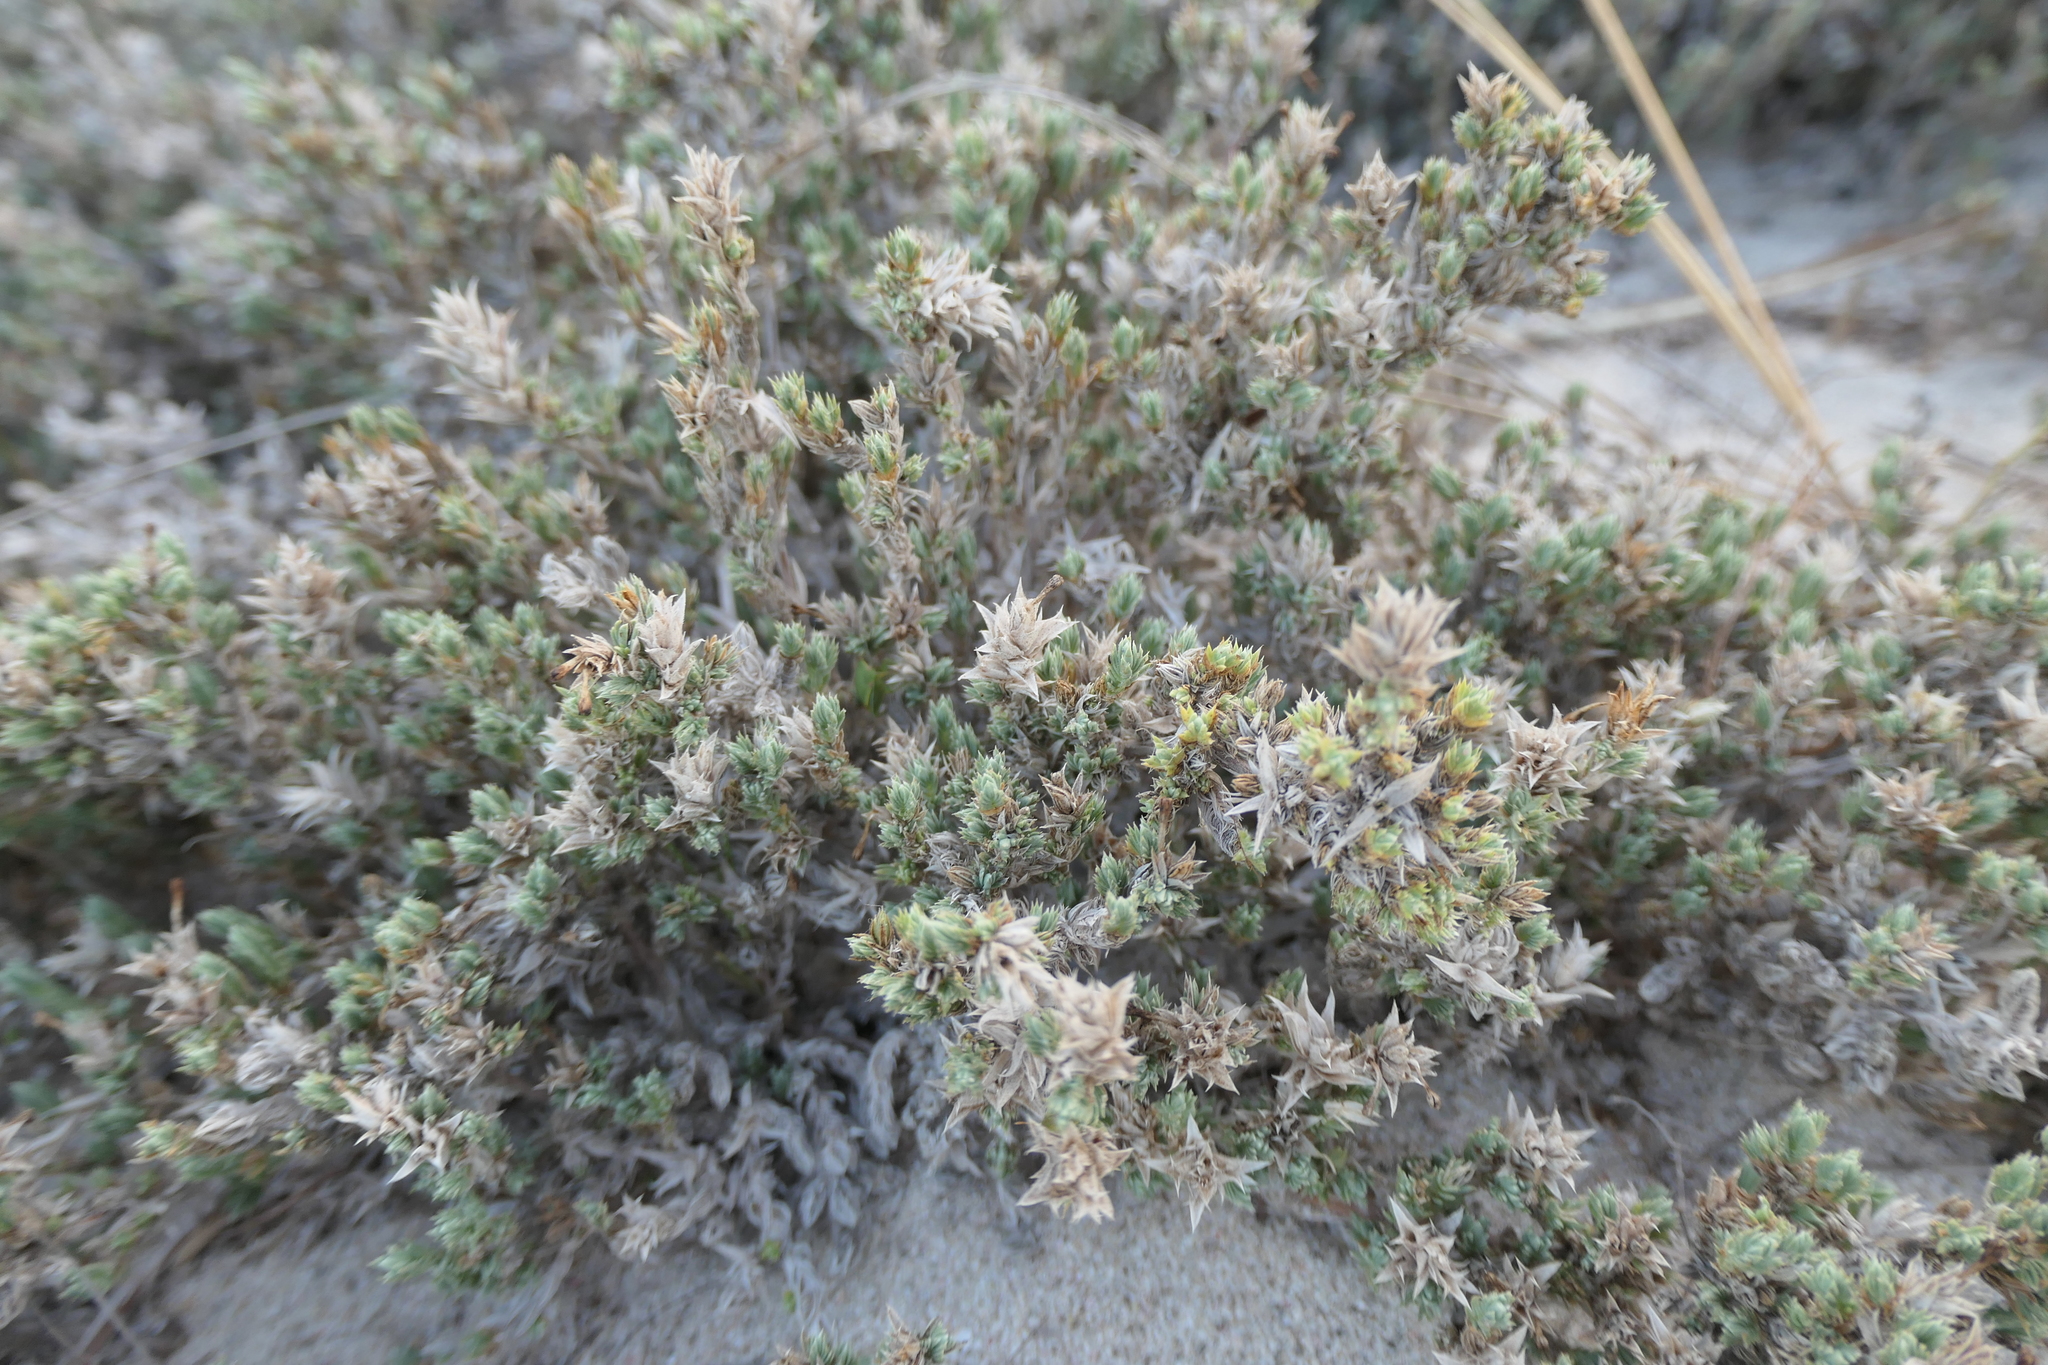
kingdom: Plantae
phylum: Tracheophyta
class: Magnoliopsida
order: Gentianales
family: Rubiaceae
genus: Crucianella
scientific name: Crucianella maritima
